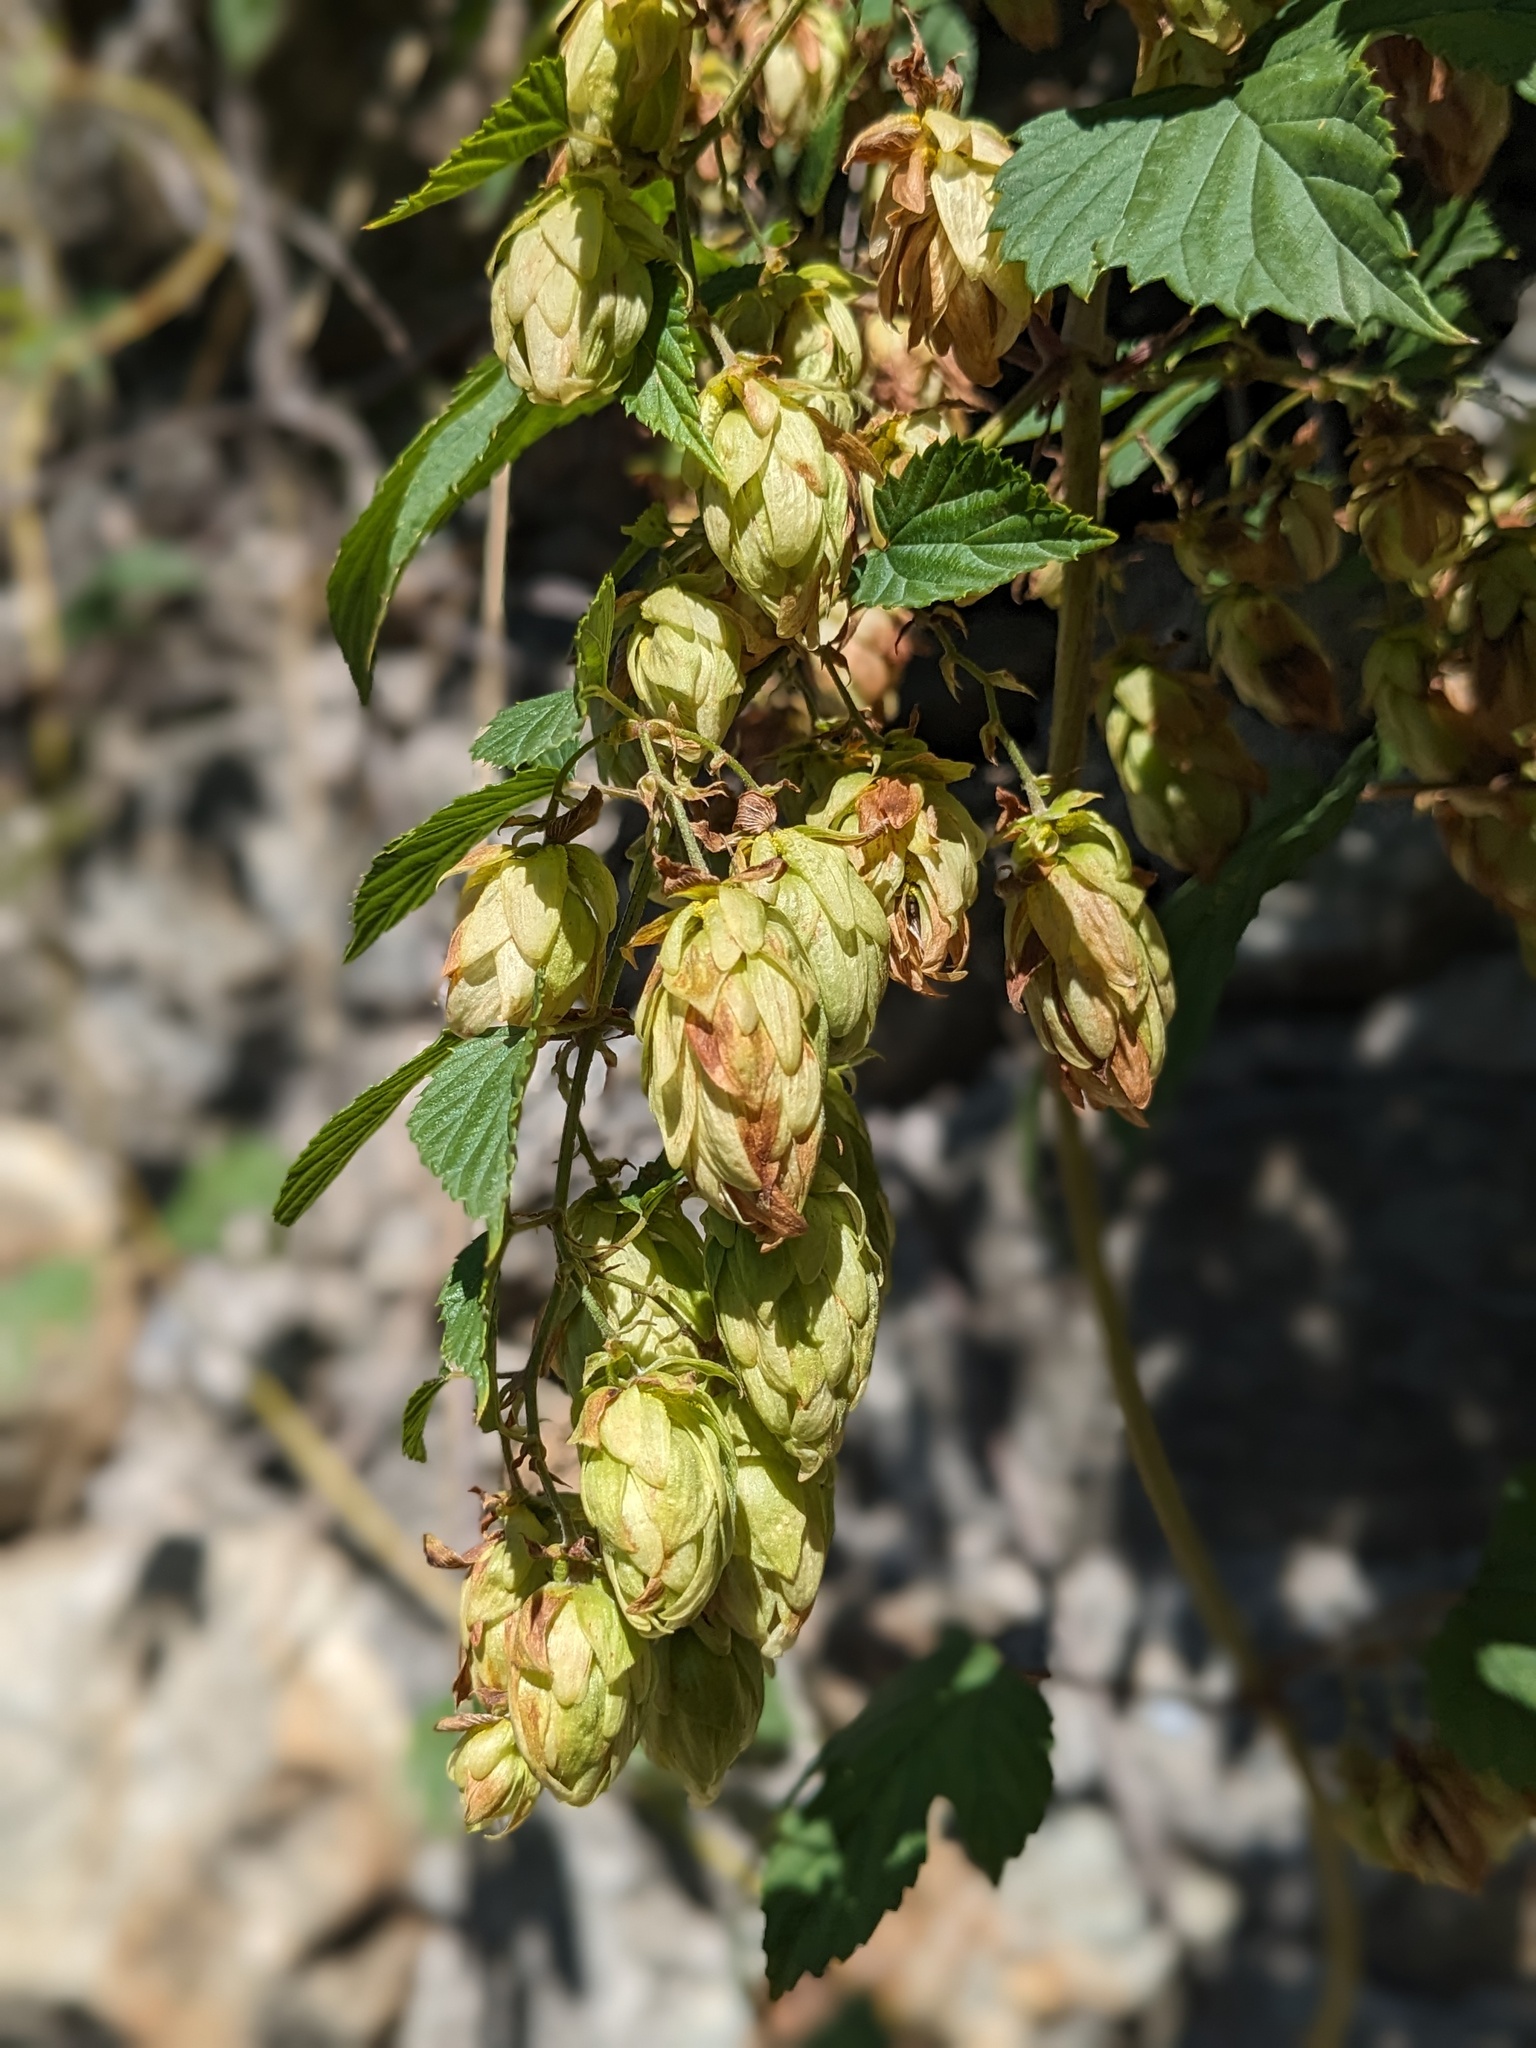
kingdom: Plantae
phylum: Tracheophyta
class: Magnoliopsida
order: Rosales
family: Cannabaceae
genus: Humulus
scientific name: Humulus lupulus
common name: Hop
